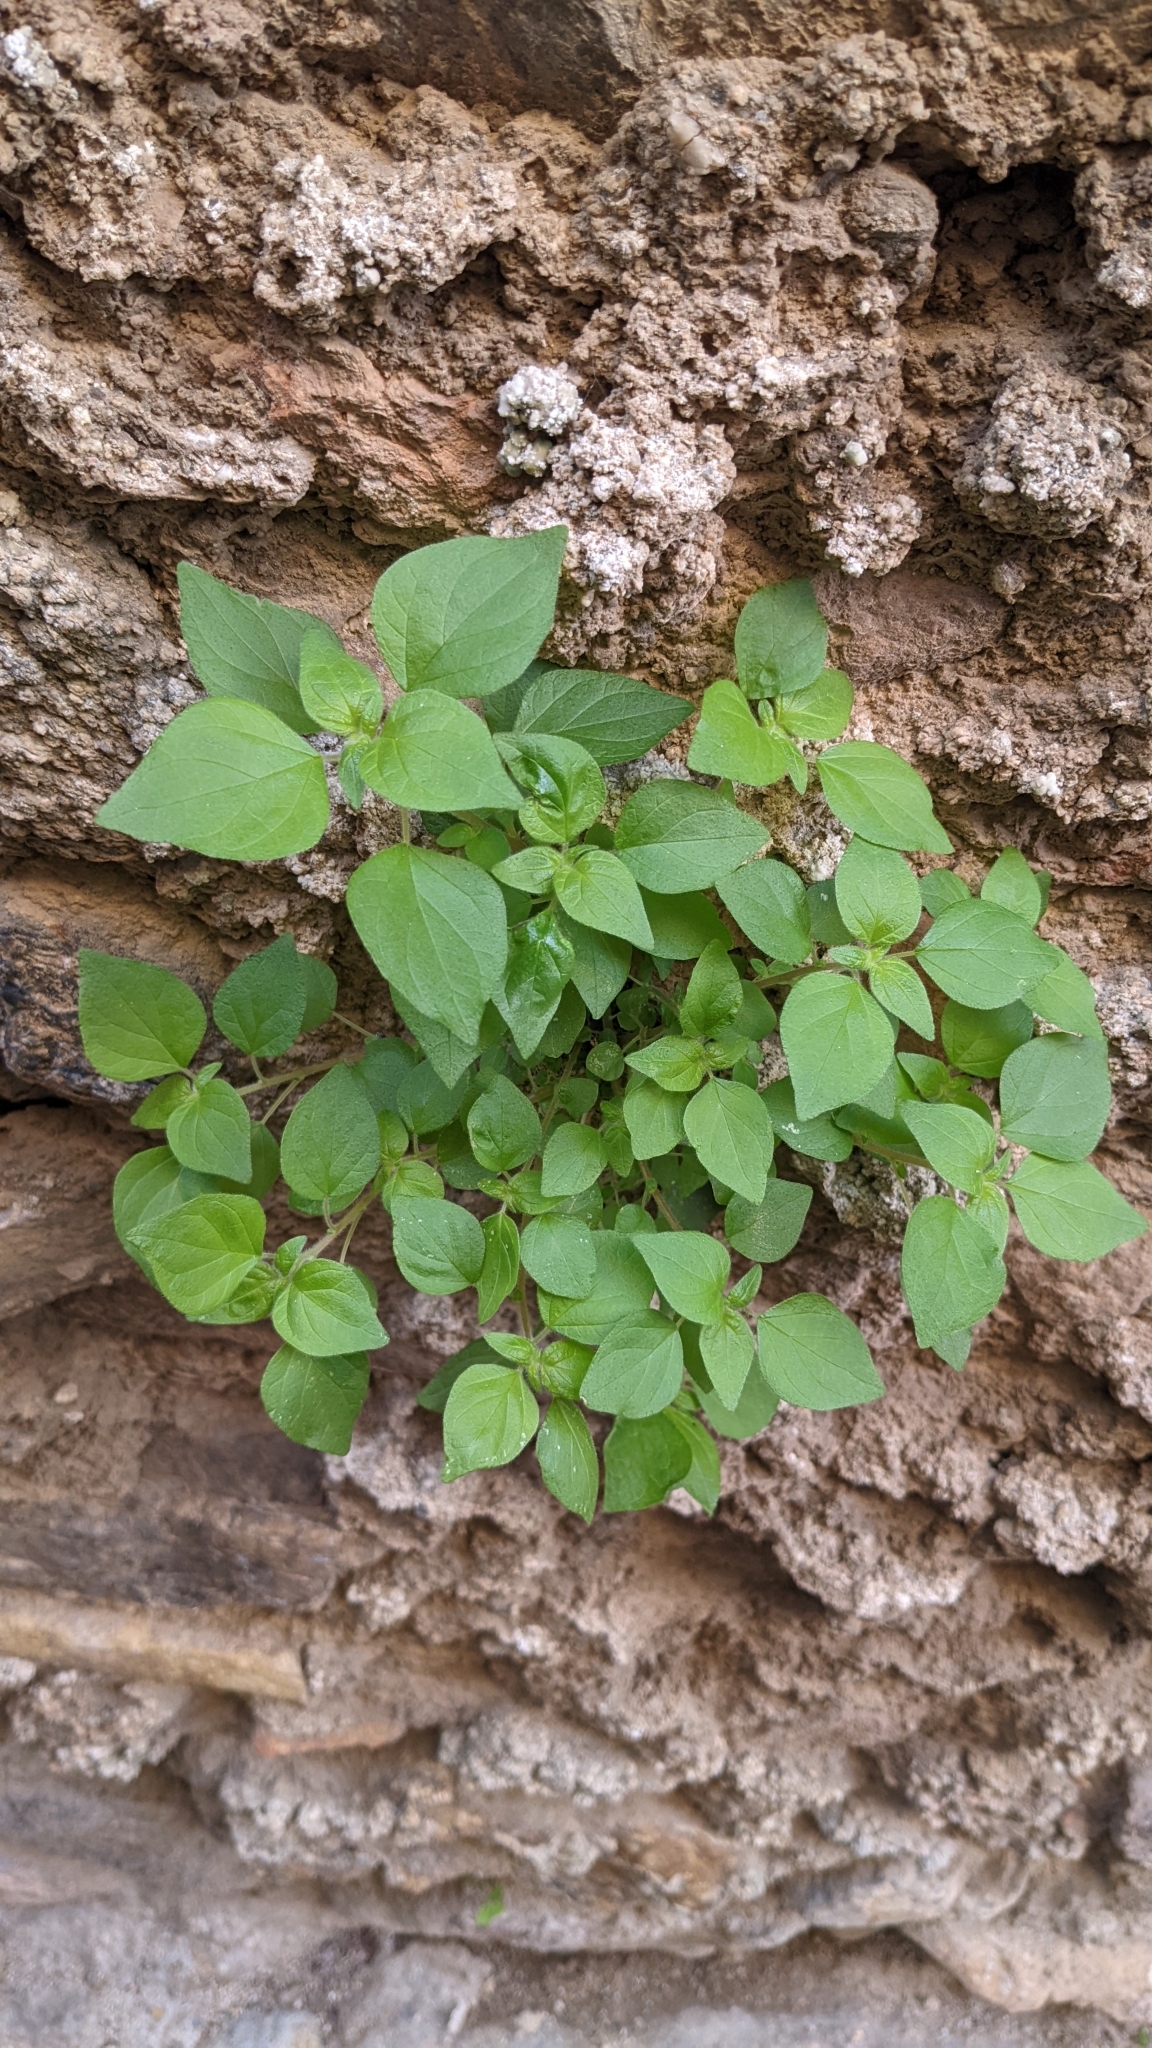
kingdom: Plantae
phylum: Tracheophyta
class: Magnoliopsida
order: Rosales
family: Urticaceae
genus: Parietaria
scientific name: Parietaria judaica
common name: Pellitory-of-the-wall
